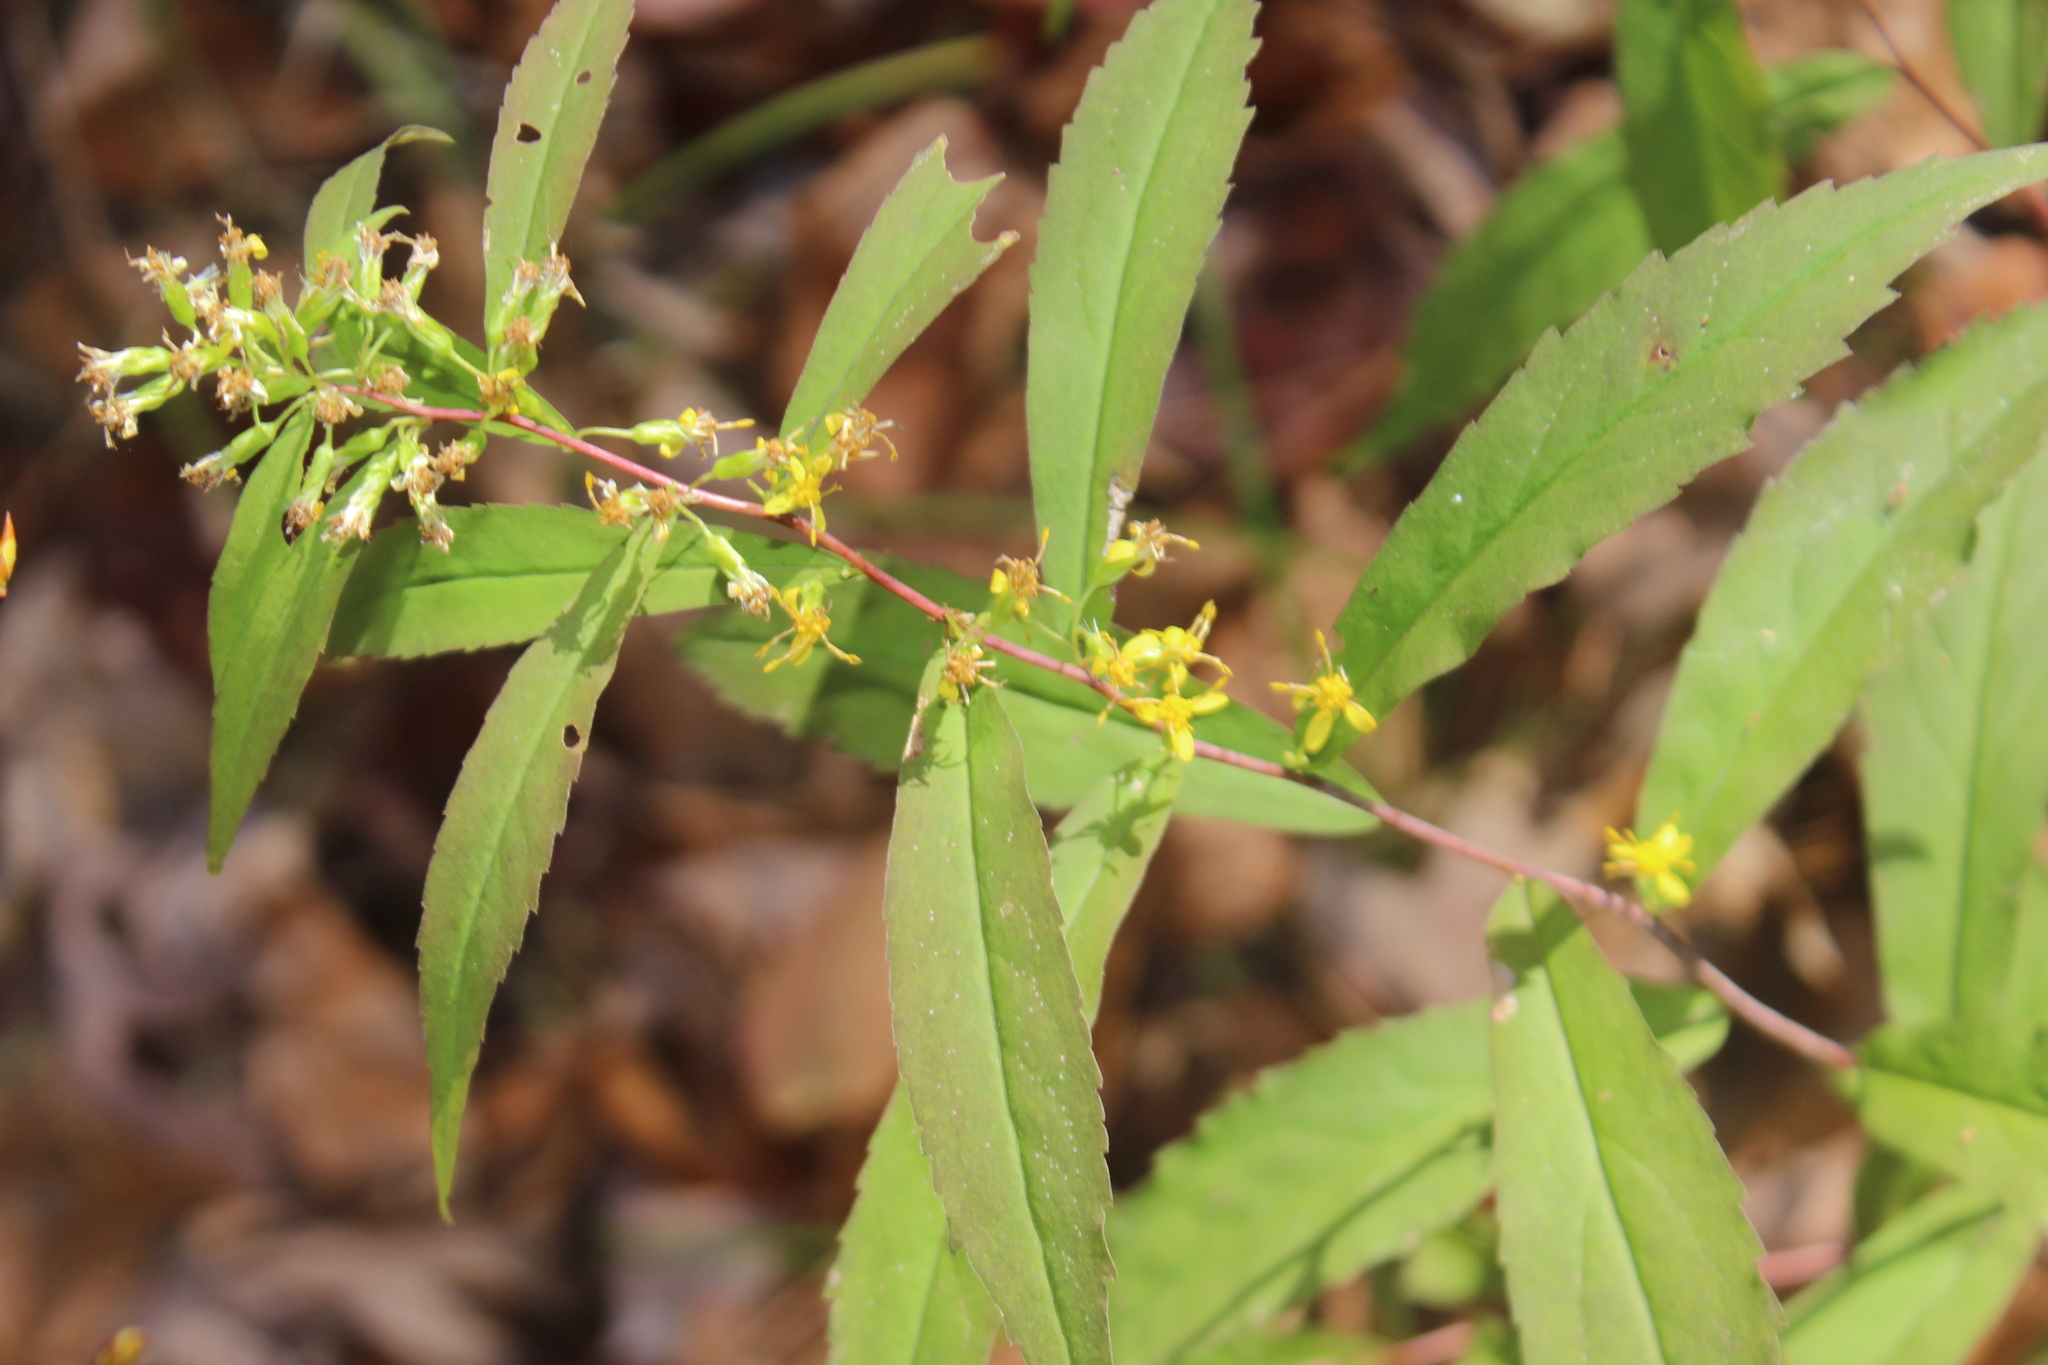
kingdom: Plantae
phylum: Tracheophyta
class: Magnoliopsida
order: Asterales
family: Asteraceae
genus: Solidago
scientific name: Solidago caesia
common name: Woodland goldenrod
